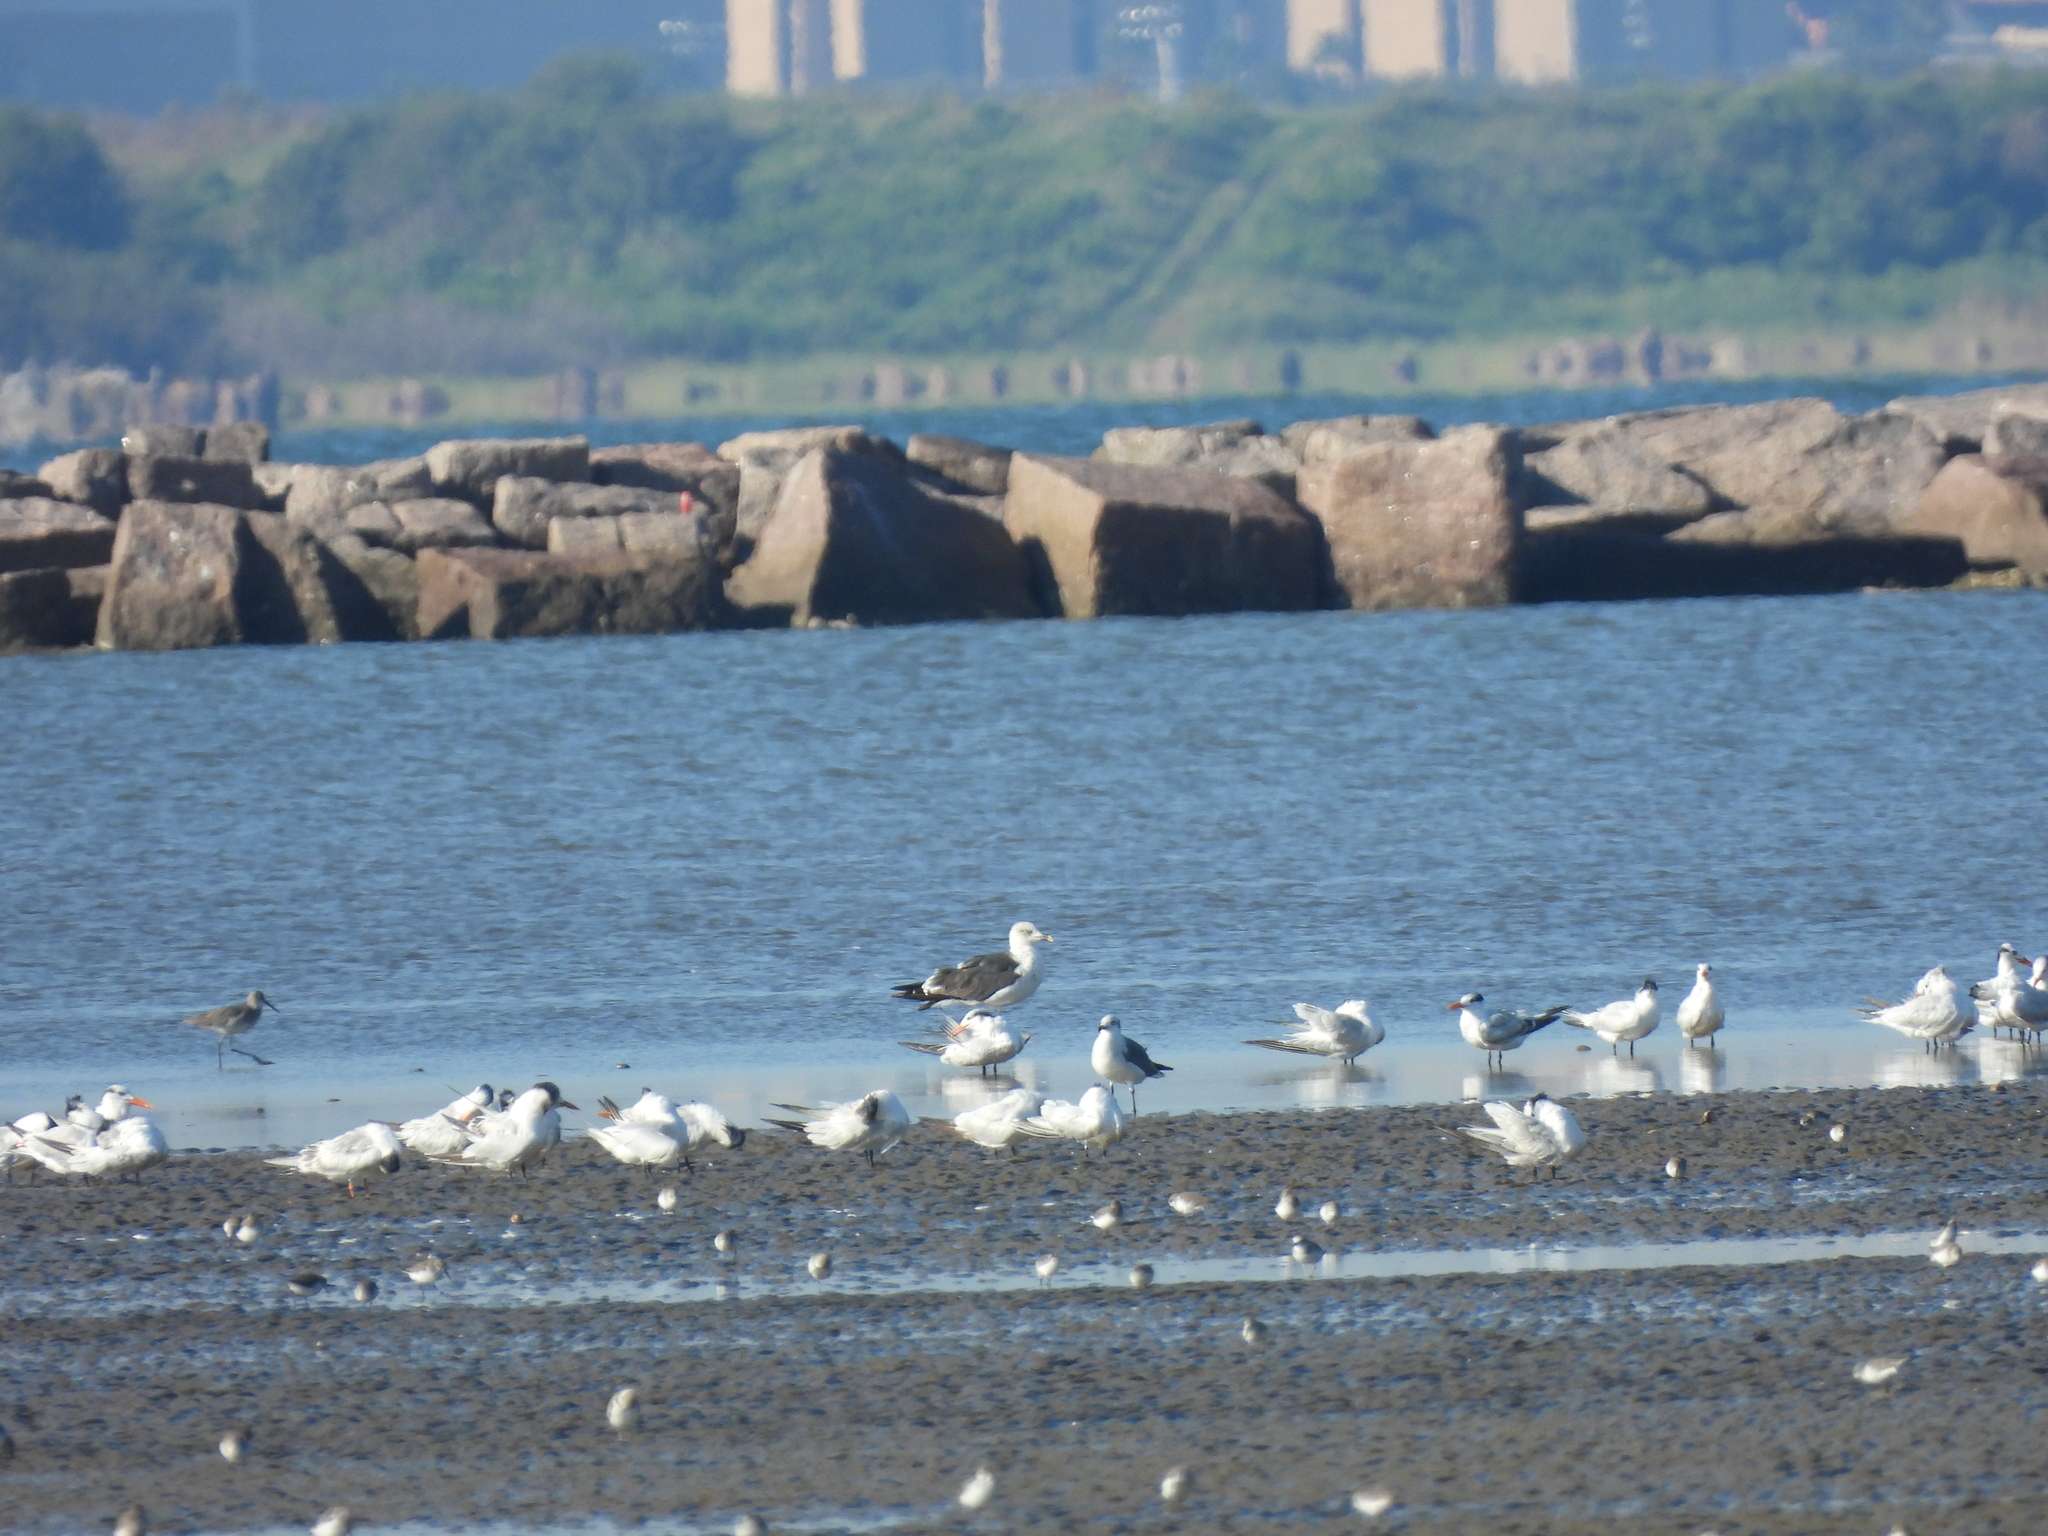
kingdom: Animalia
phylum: Chordata
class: Aves
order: Charadriiformes
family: Laridae
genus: Larus
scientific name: Larus fuscus
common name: Lesser black-backed gull
